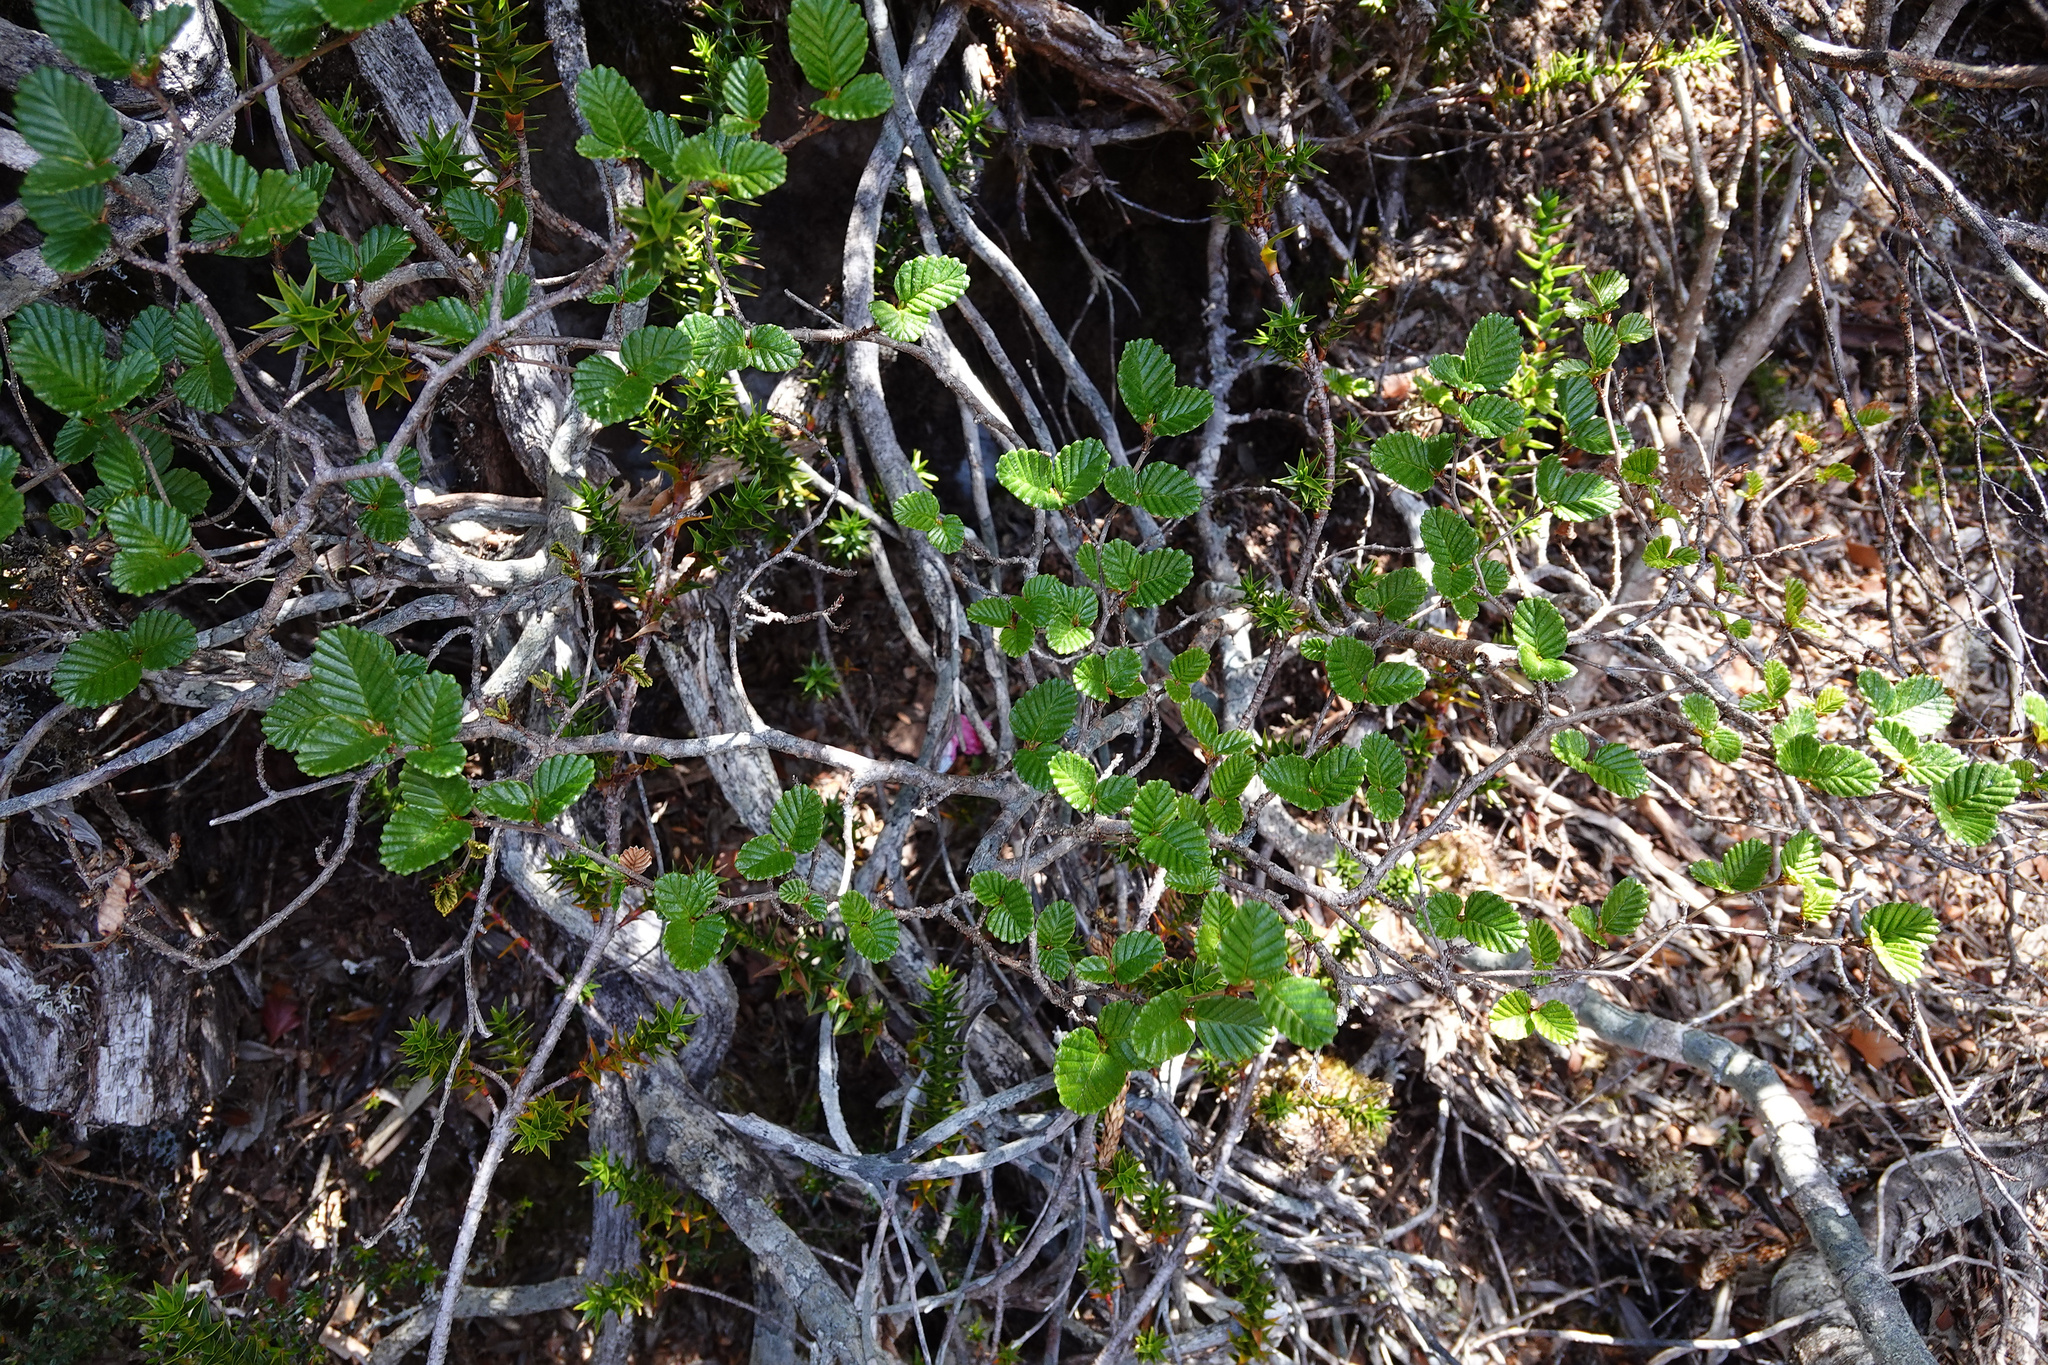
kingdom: Plantae
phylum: Tracheophyta
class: Magnoliopsida
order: Fagales
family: Nothofagaceae
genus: Nothofagus
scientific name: Nothofagus gunnii
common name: Tanglefoot
